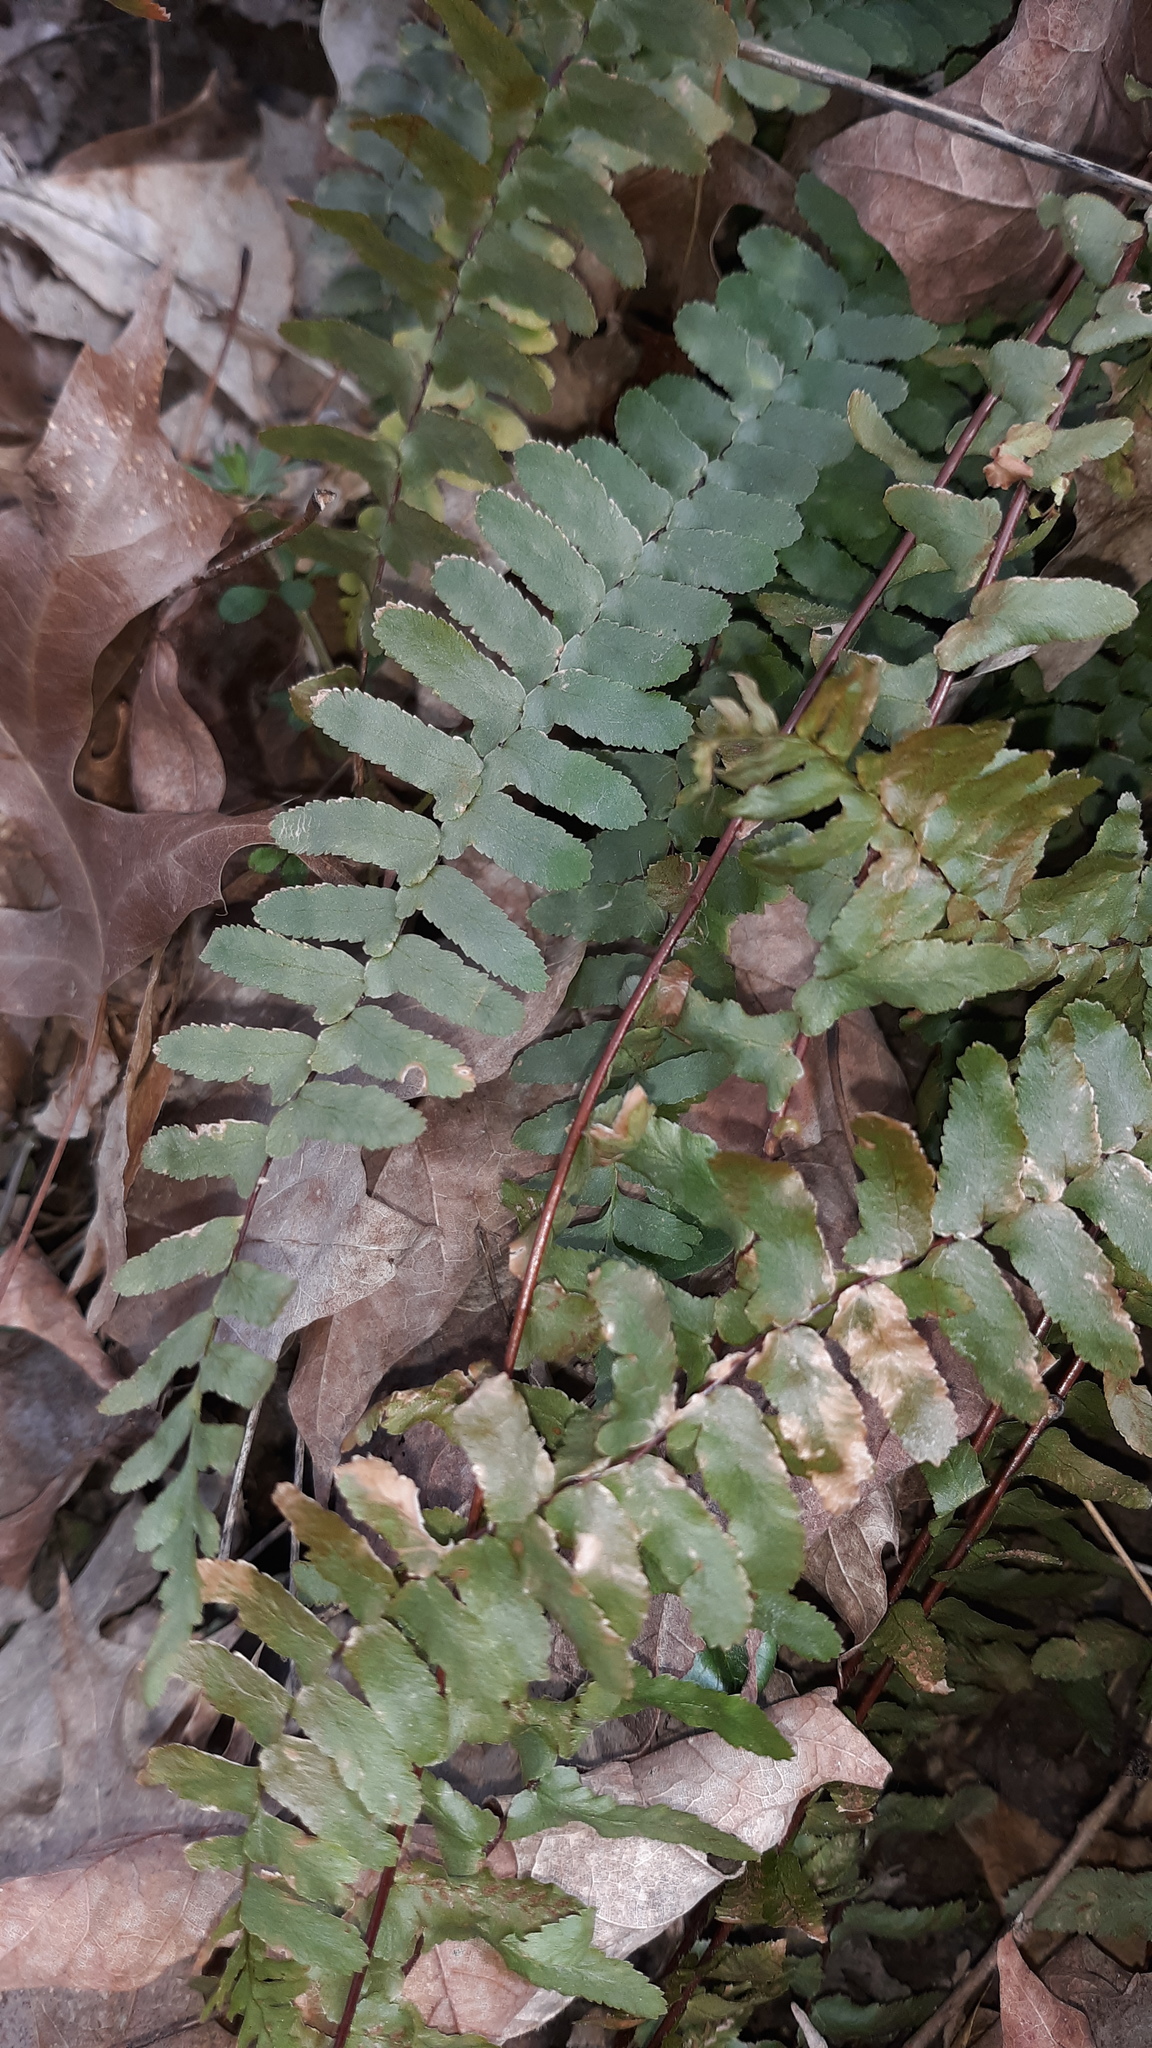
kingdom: Plantae
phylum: Tracheophyta
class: Polypodiopsida
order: Polypodiales
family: Aspleniaceae
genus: Asplenium
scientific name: Asplenium platyneuron
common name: Ebony spleenwort
